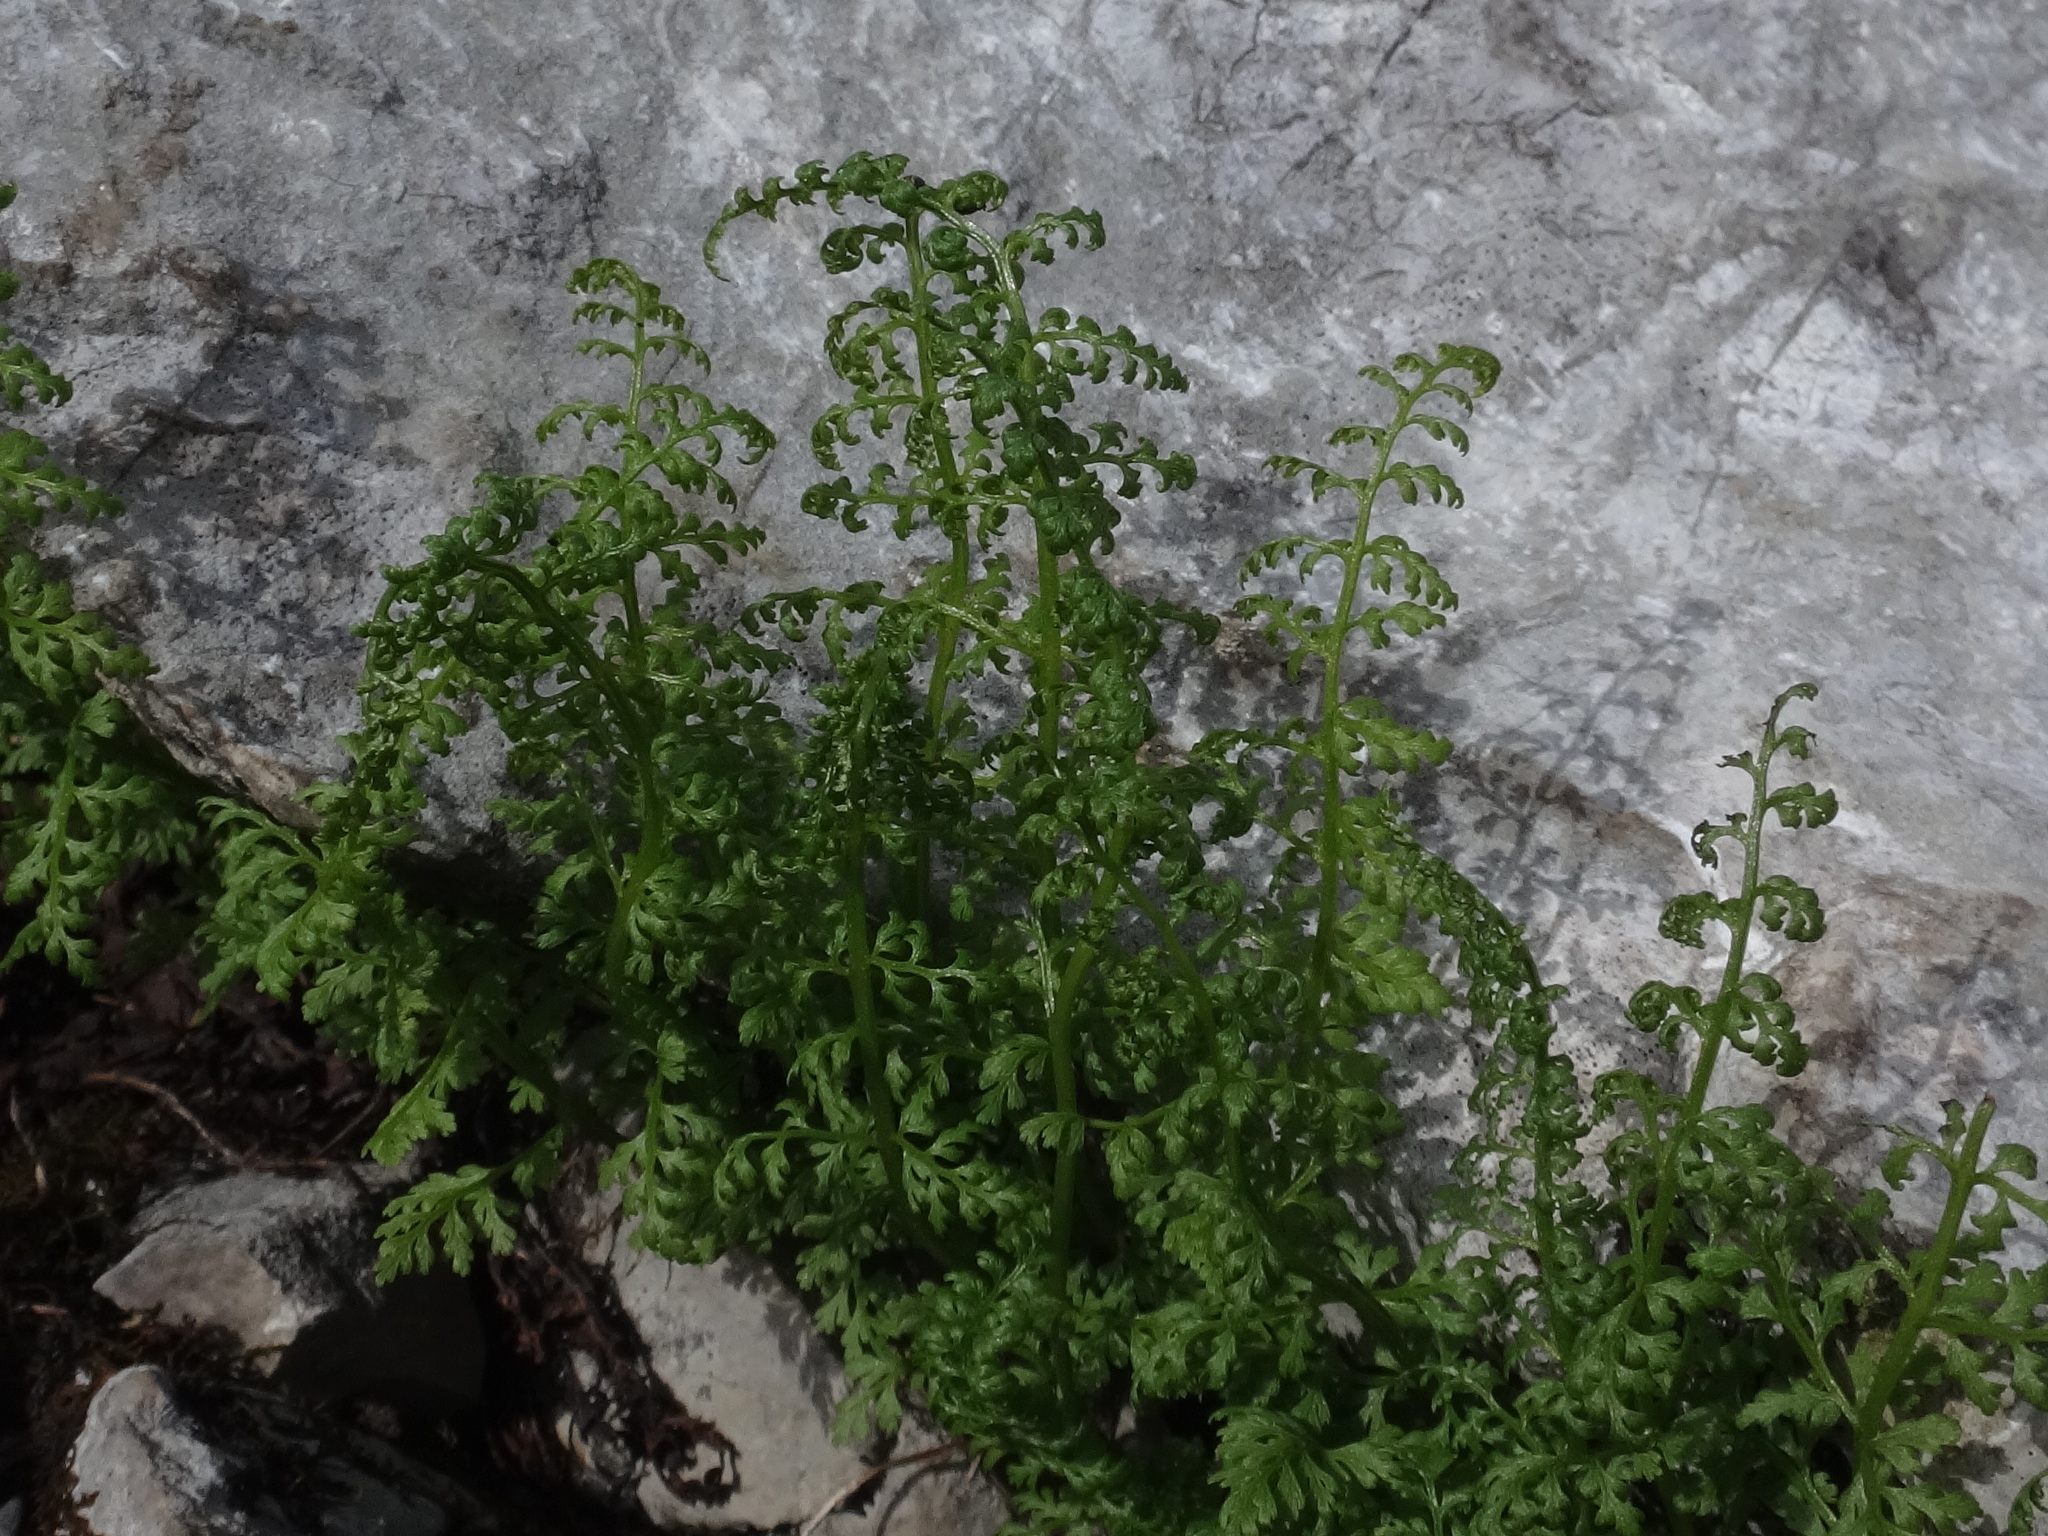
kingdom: Plantae
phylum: Tracheophyta
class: Polypodiopsida
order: Polypodiales
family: Cystopteridaceae
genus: Cystopteris
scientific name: Cystopteris alpina
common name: Alpine bladder-fern
